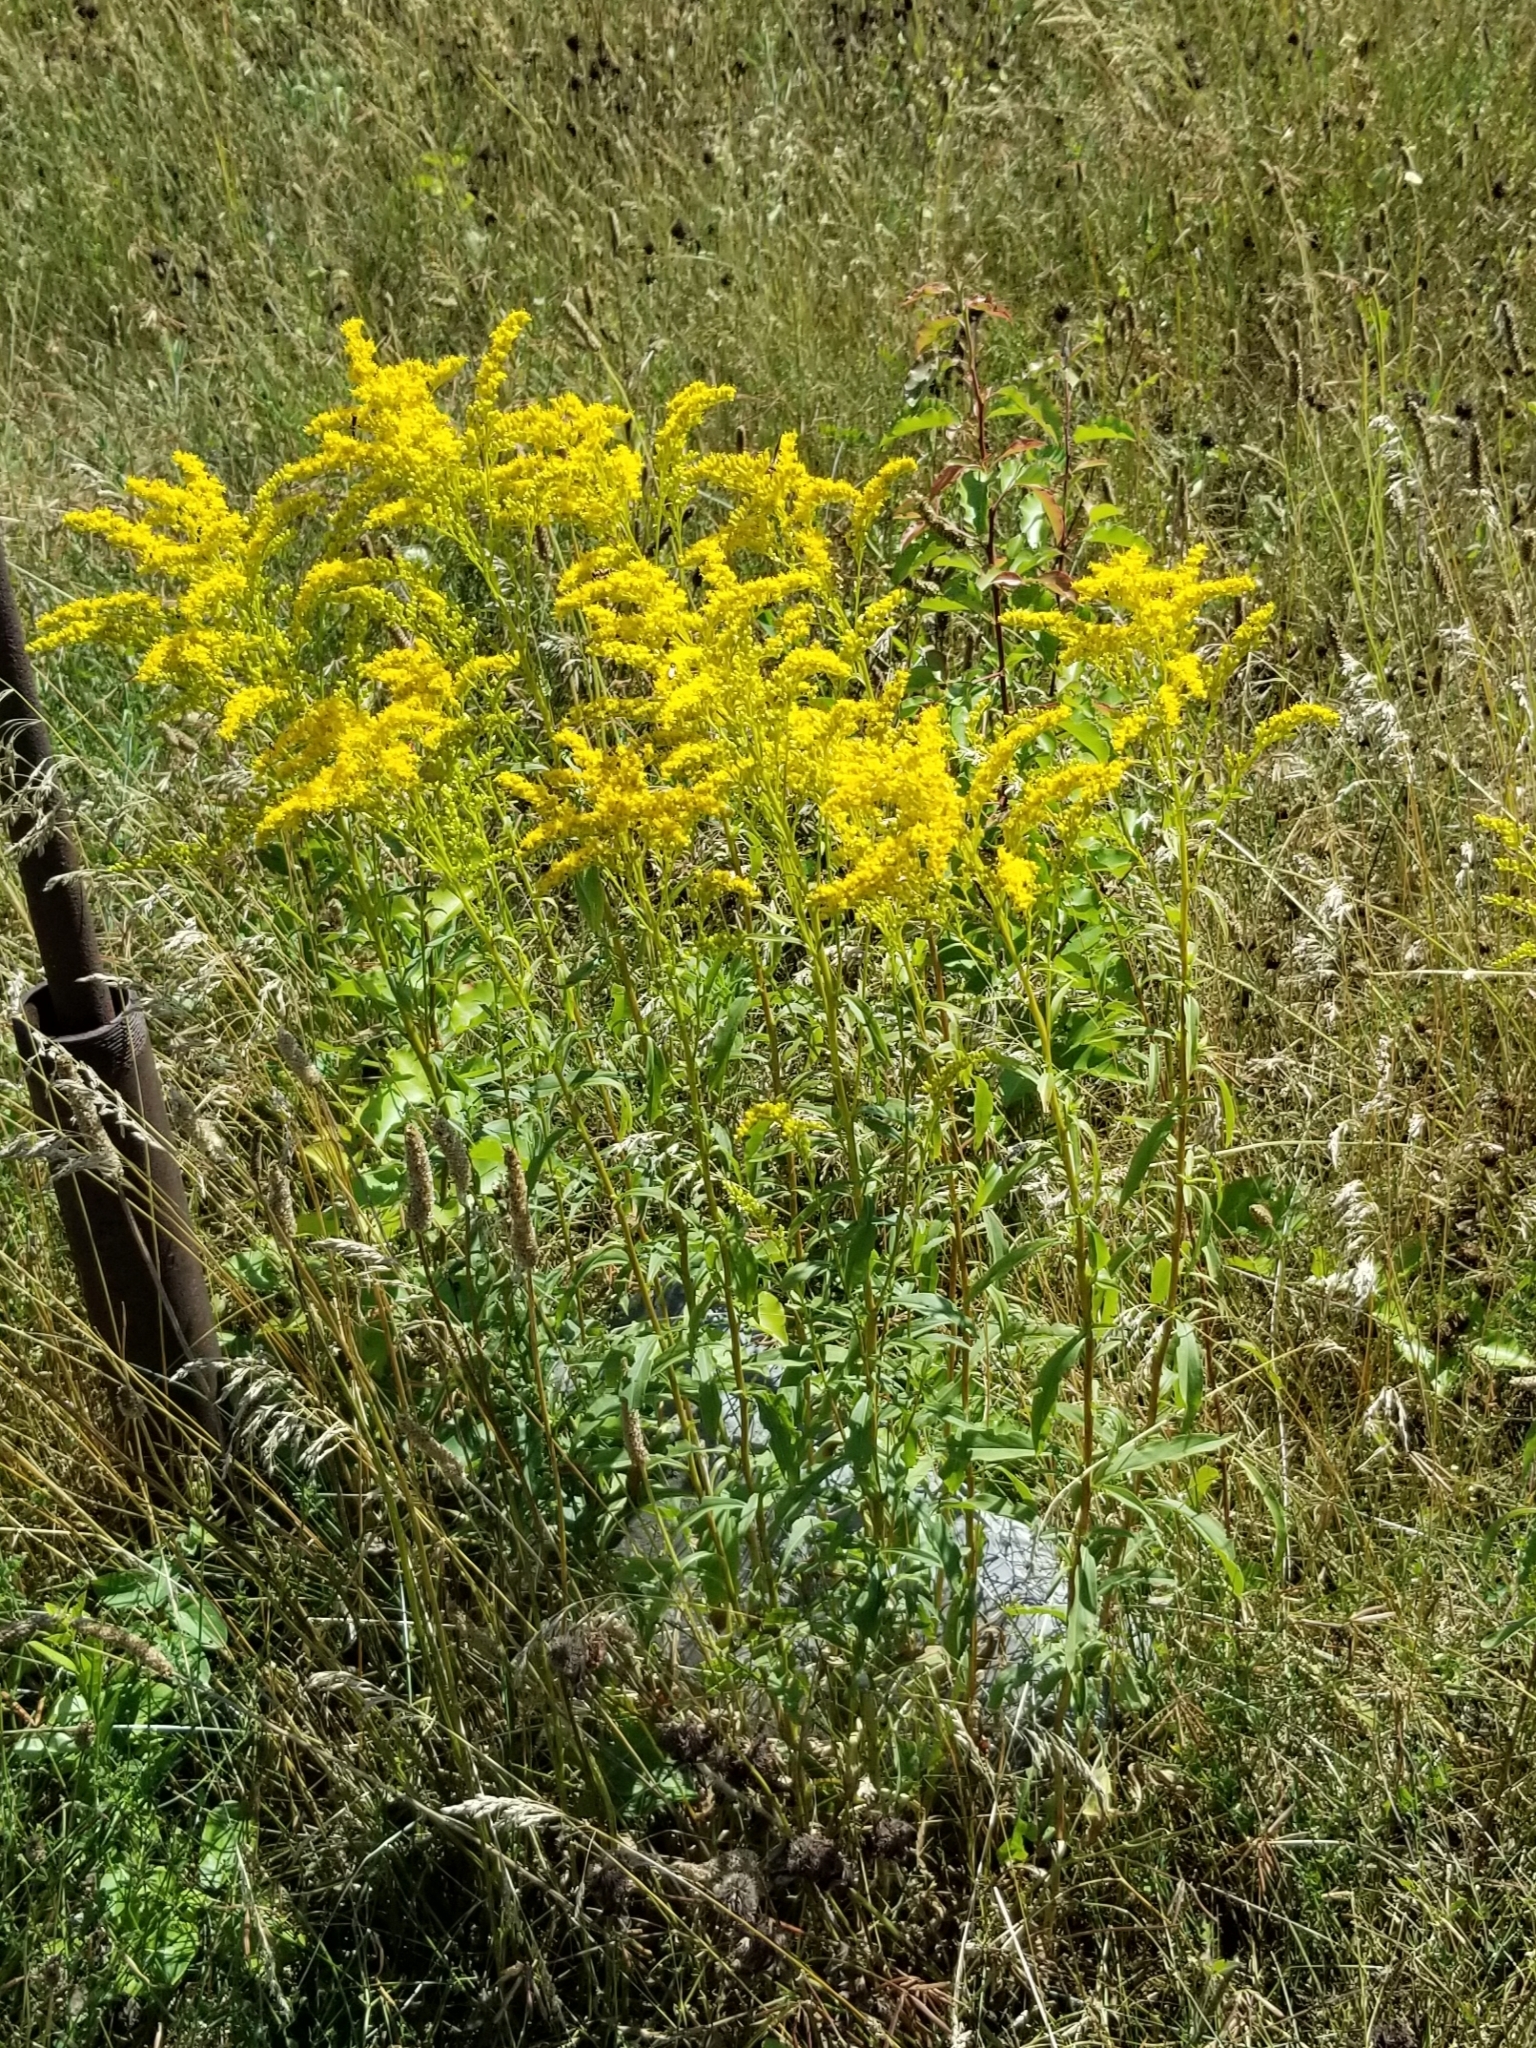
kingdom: Plantae
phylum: Tracheophyta
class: Magnoliopsida
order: Asterales
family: Asteraceae
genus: Solidago
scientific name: Solidago juncea
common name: Early goldenrod
